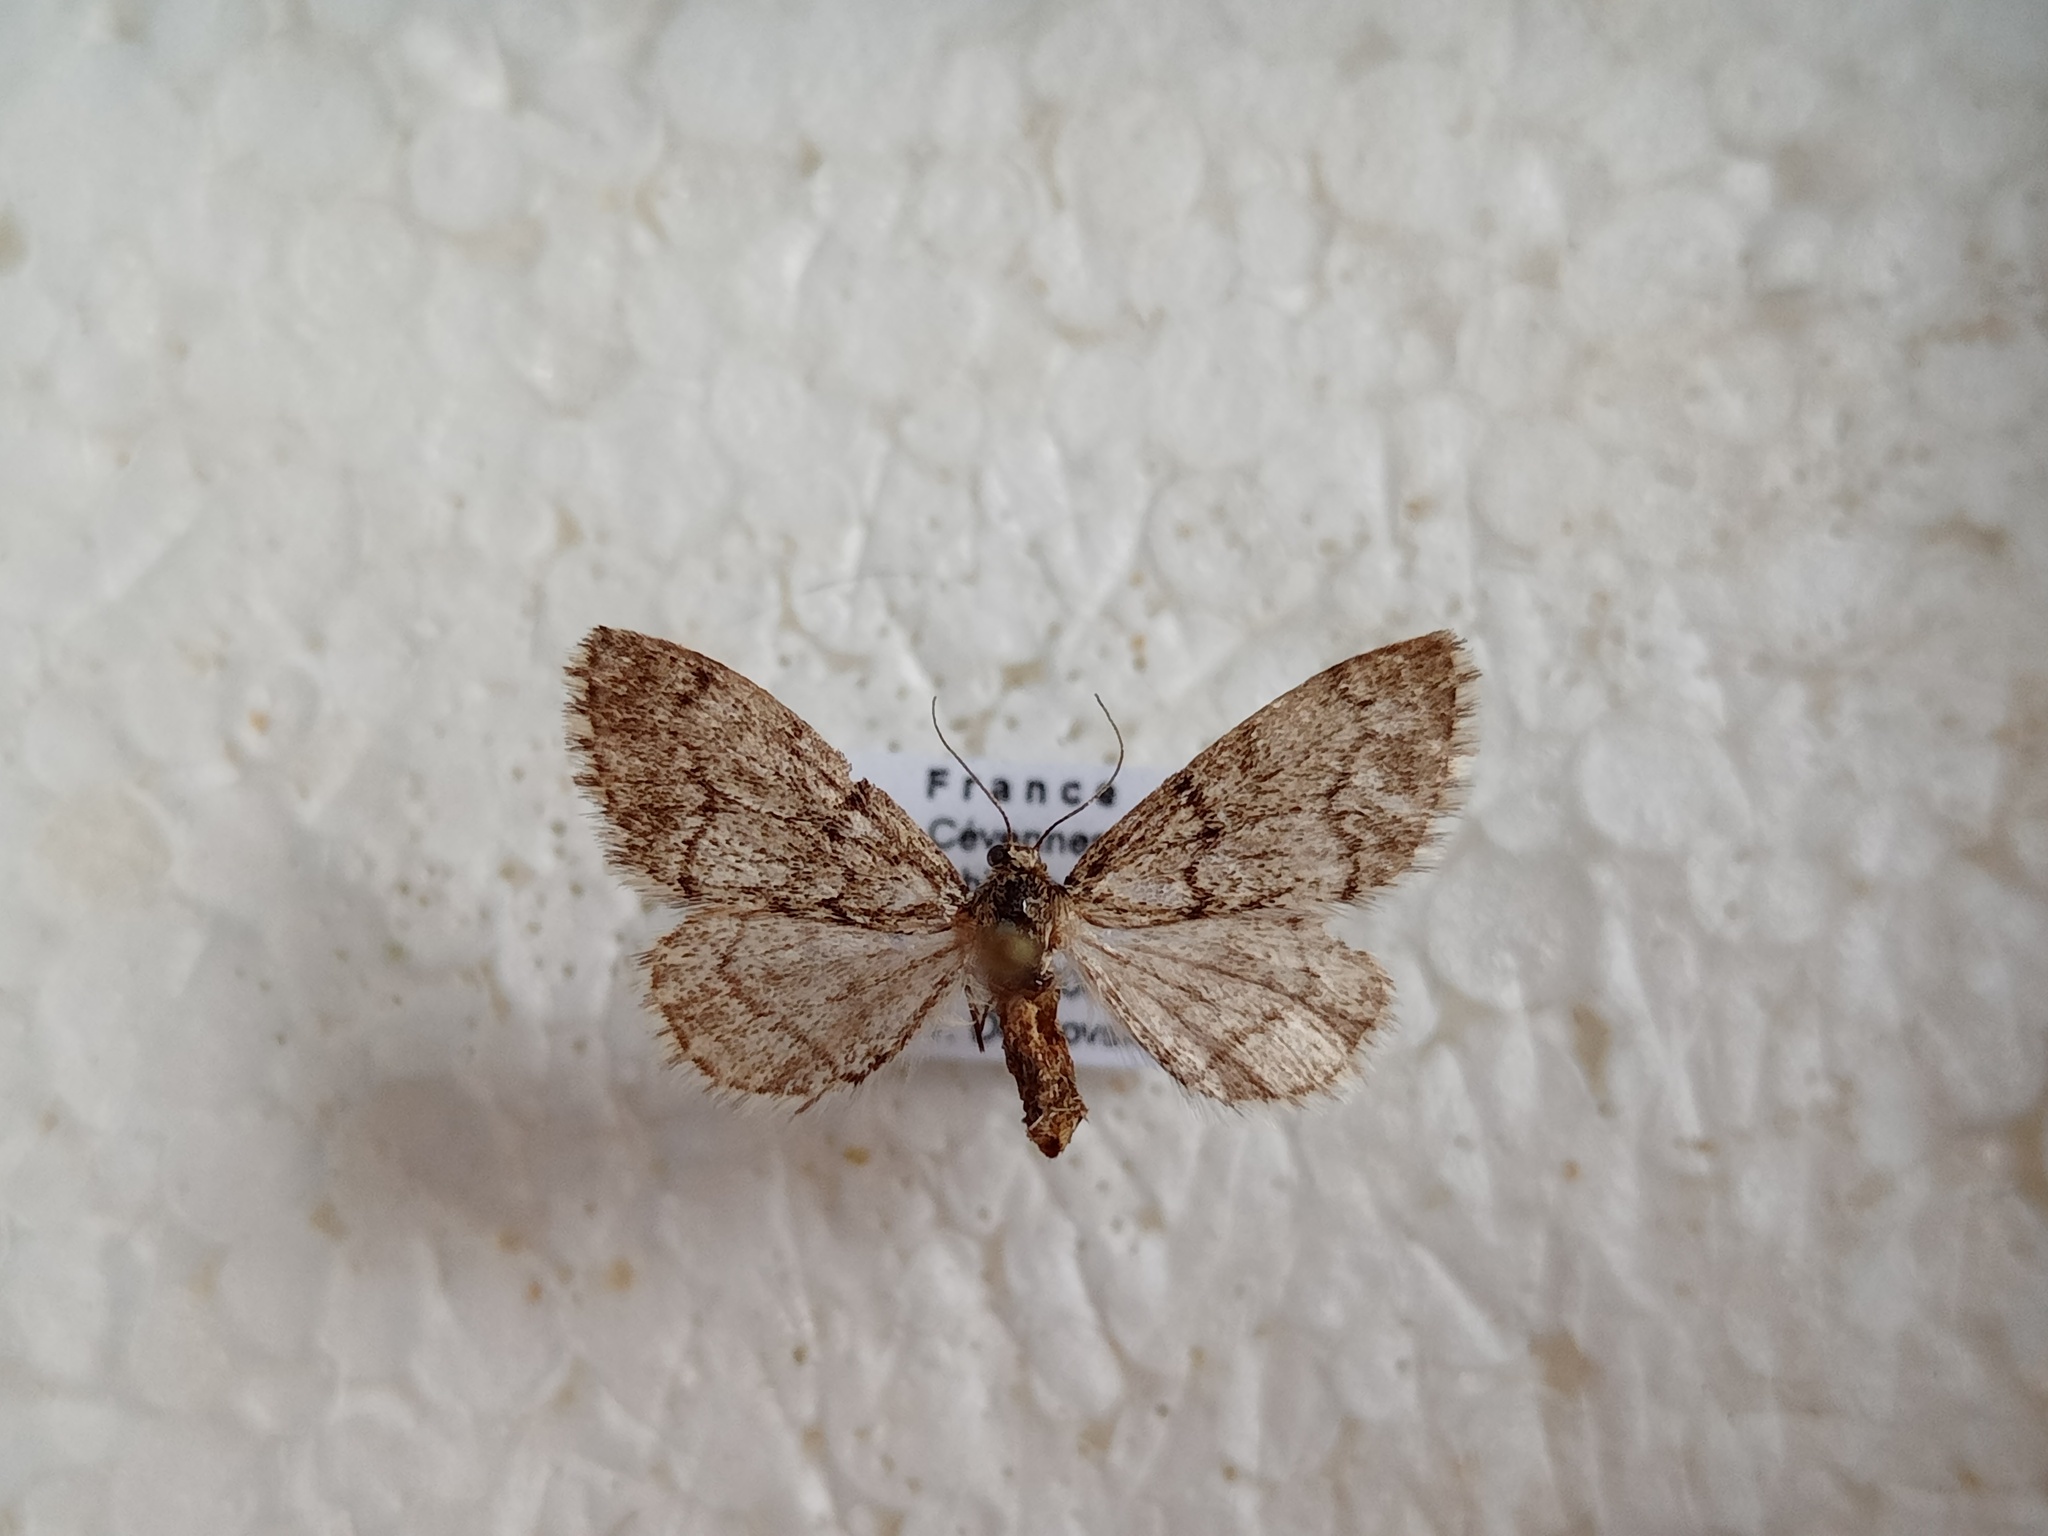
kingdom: Animalia
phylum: Arthropoda
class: Insecta
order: Lepidoptera
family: Geometridae
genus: Tephronia
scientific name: Tephronia sepiaria
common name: Dusky carpet
